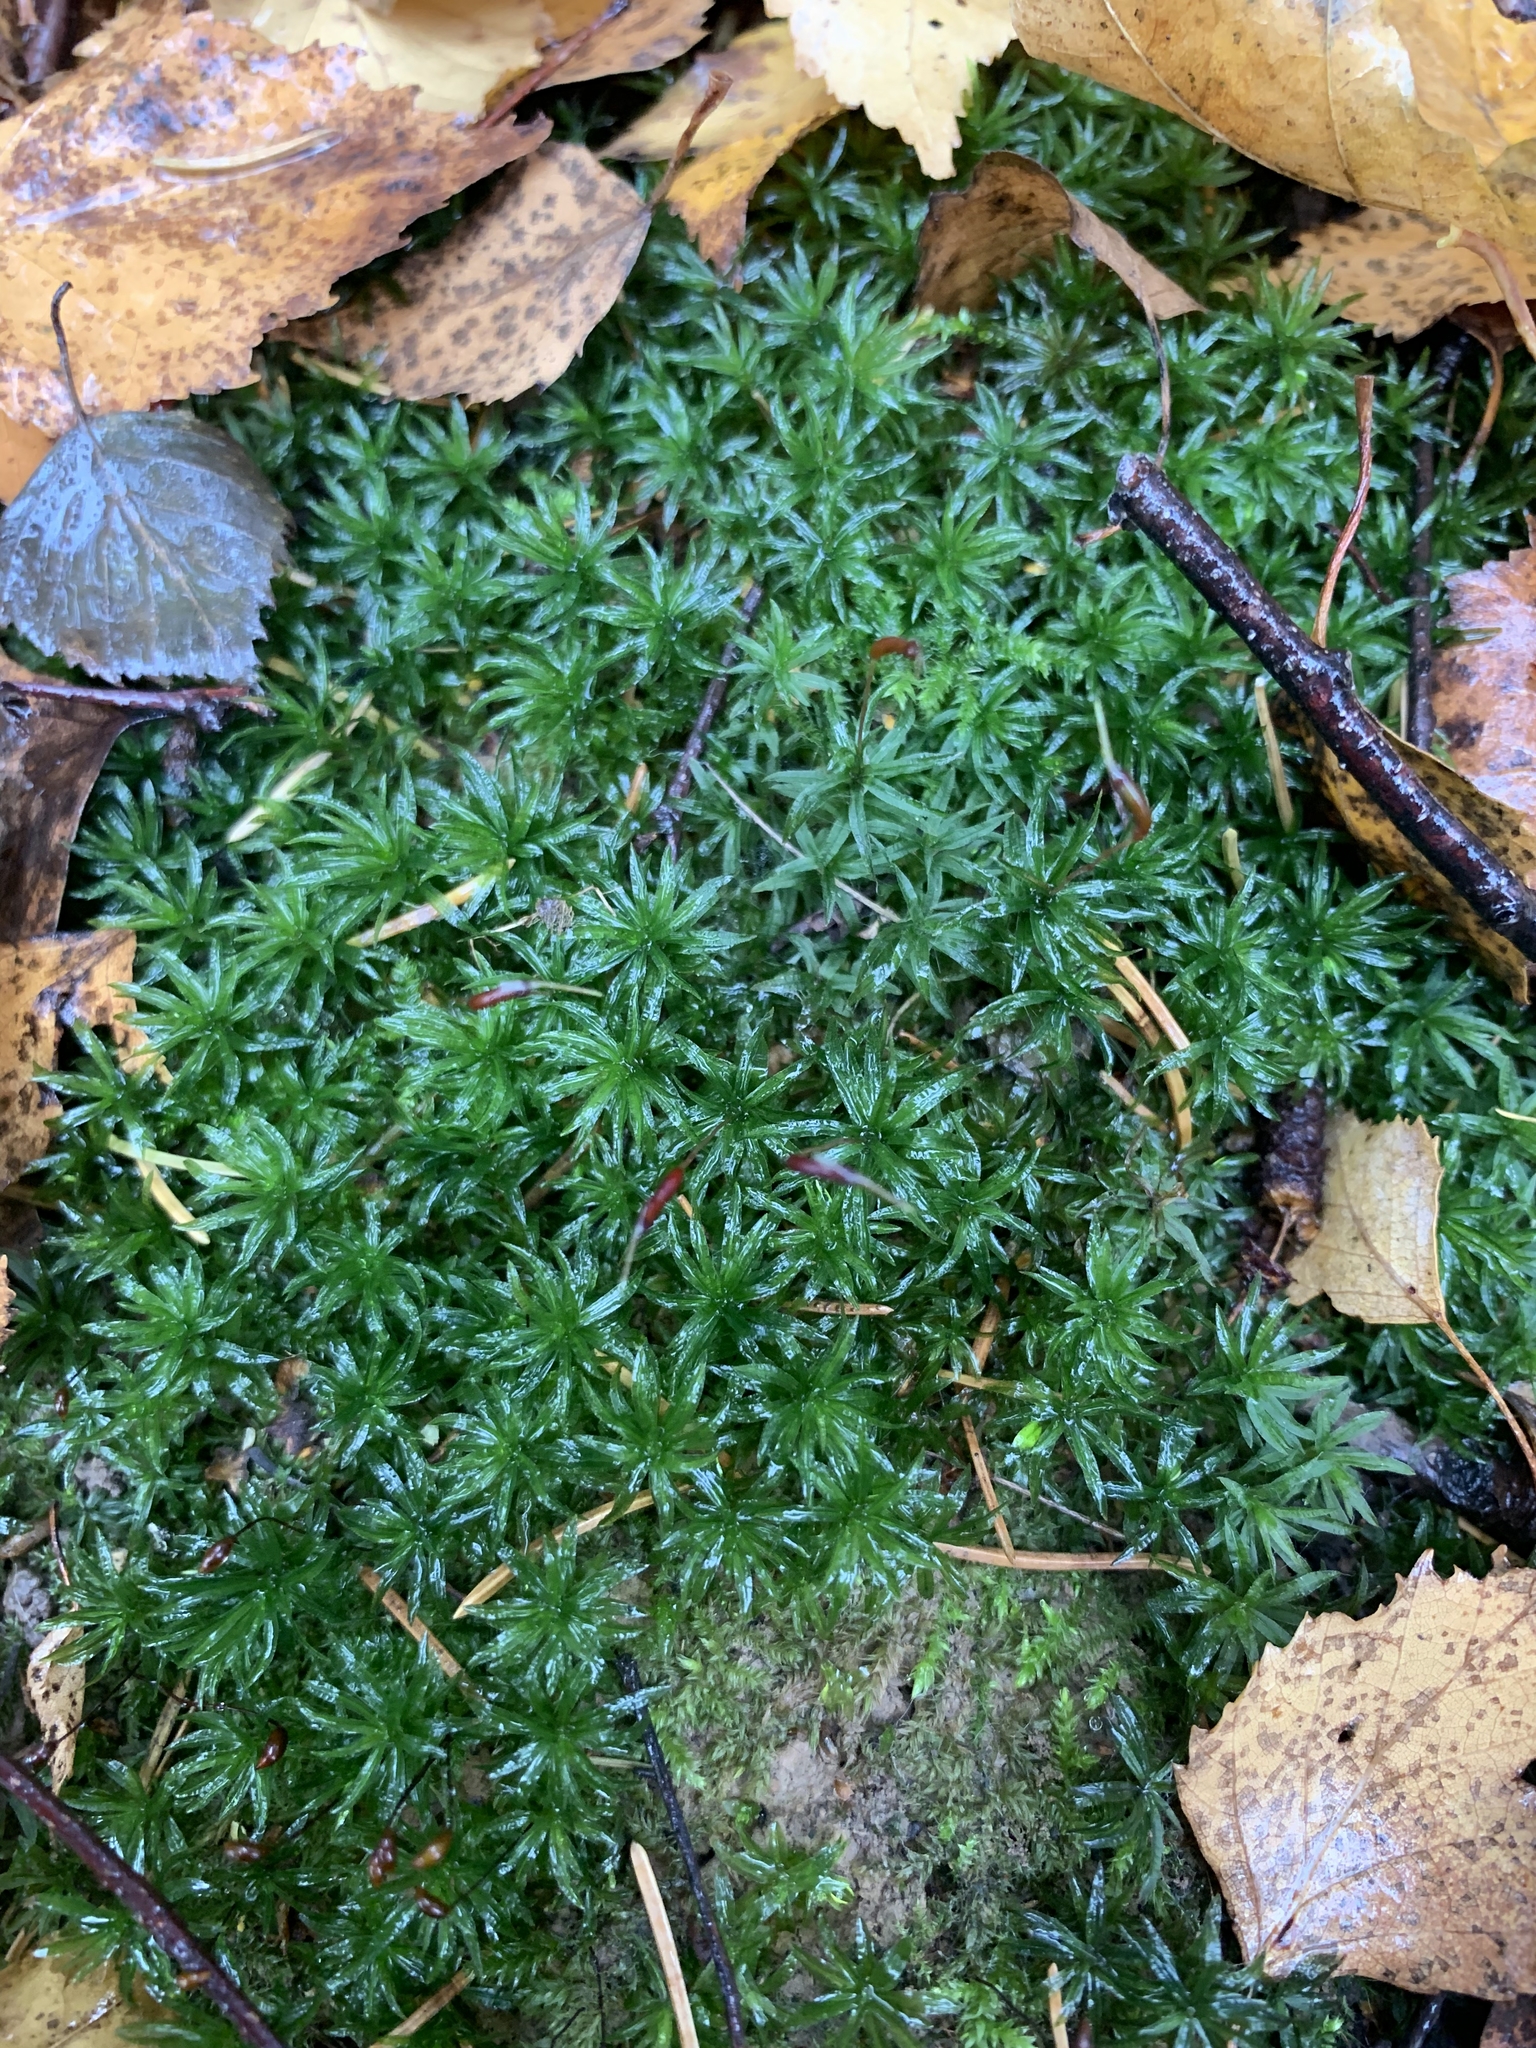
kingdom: Plantae
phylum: Bryophyta
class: Polytrichopsida
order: Polytrichales
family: Polytrichaceae
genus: Atrichum
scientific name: Atrichum undulatum
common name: Common smoothcap
